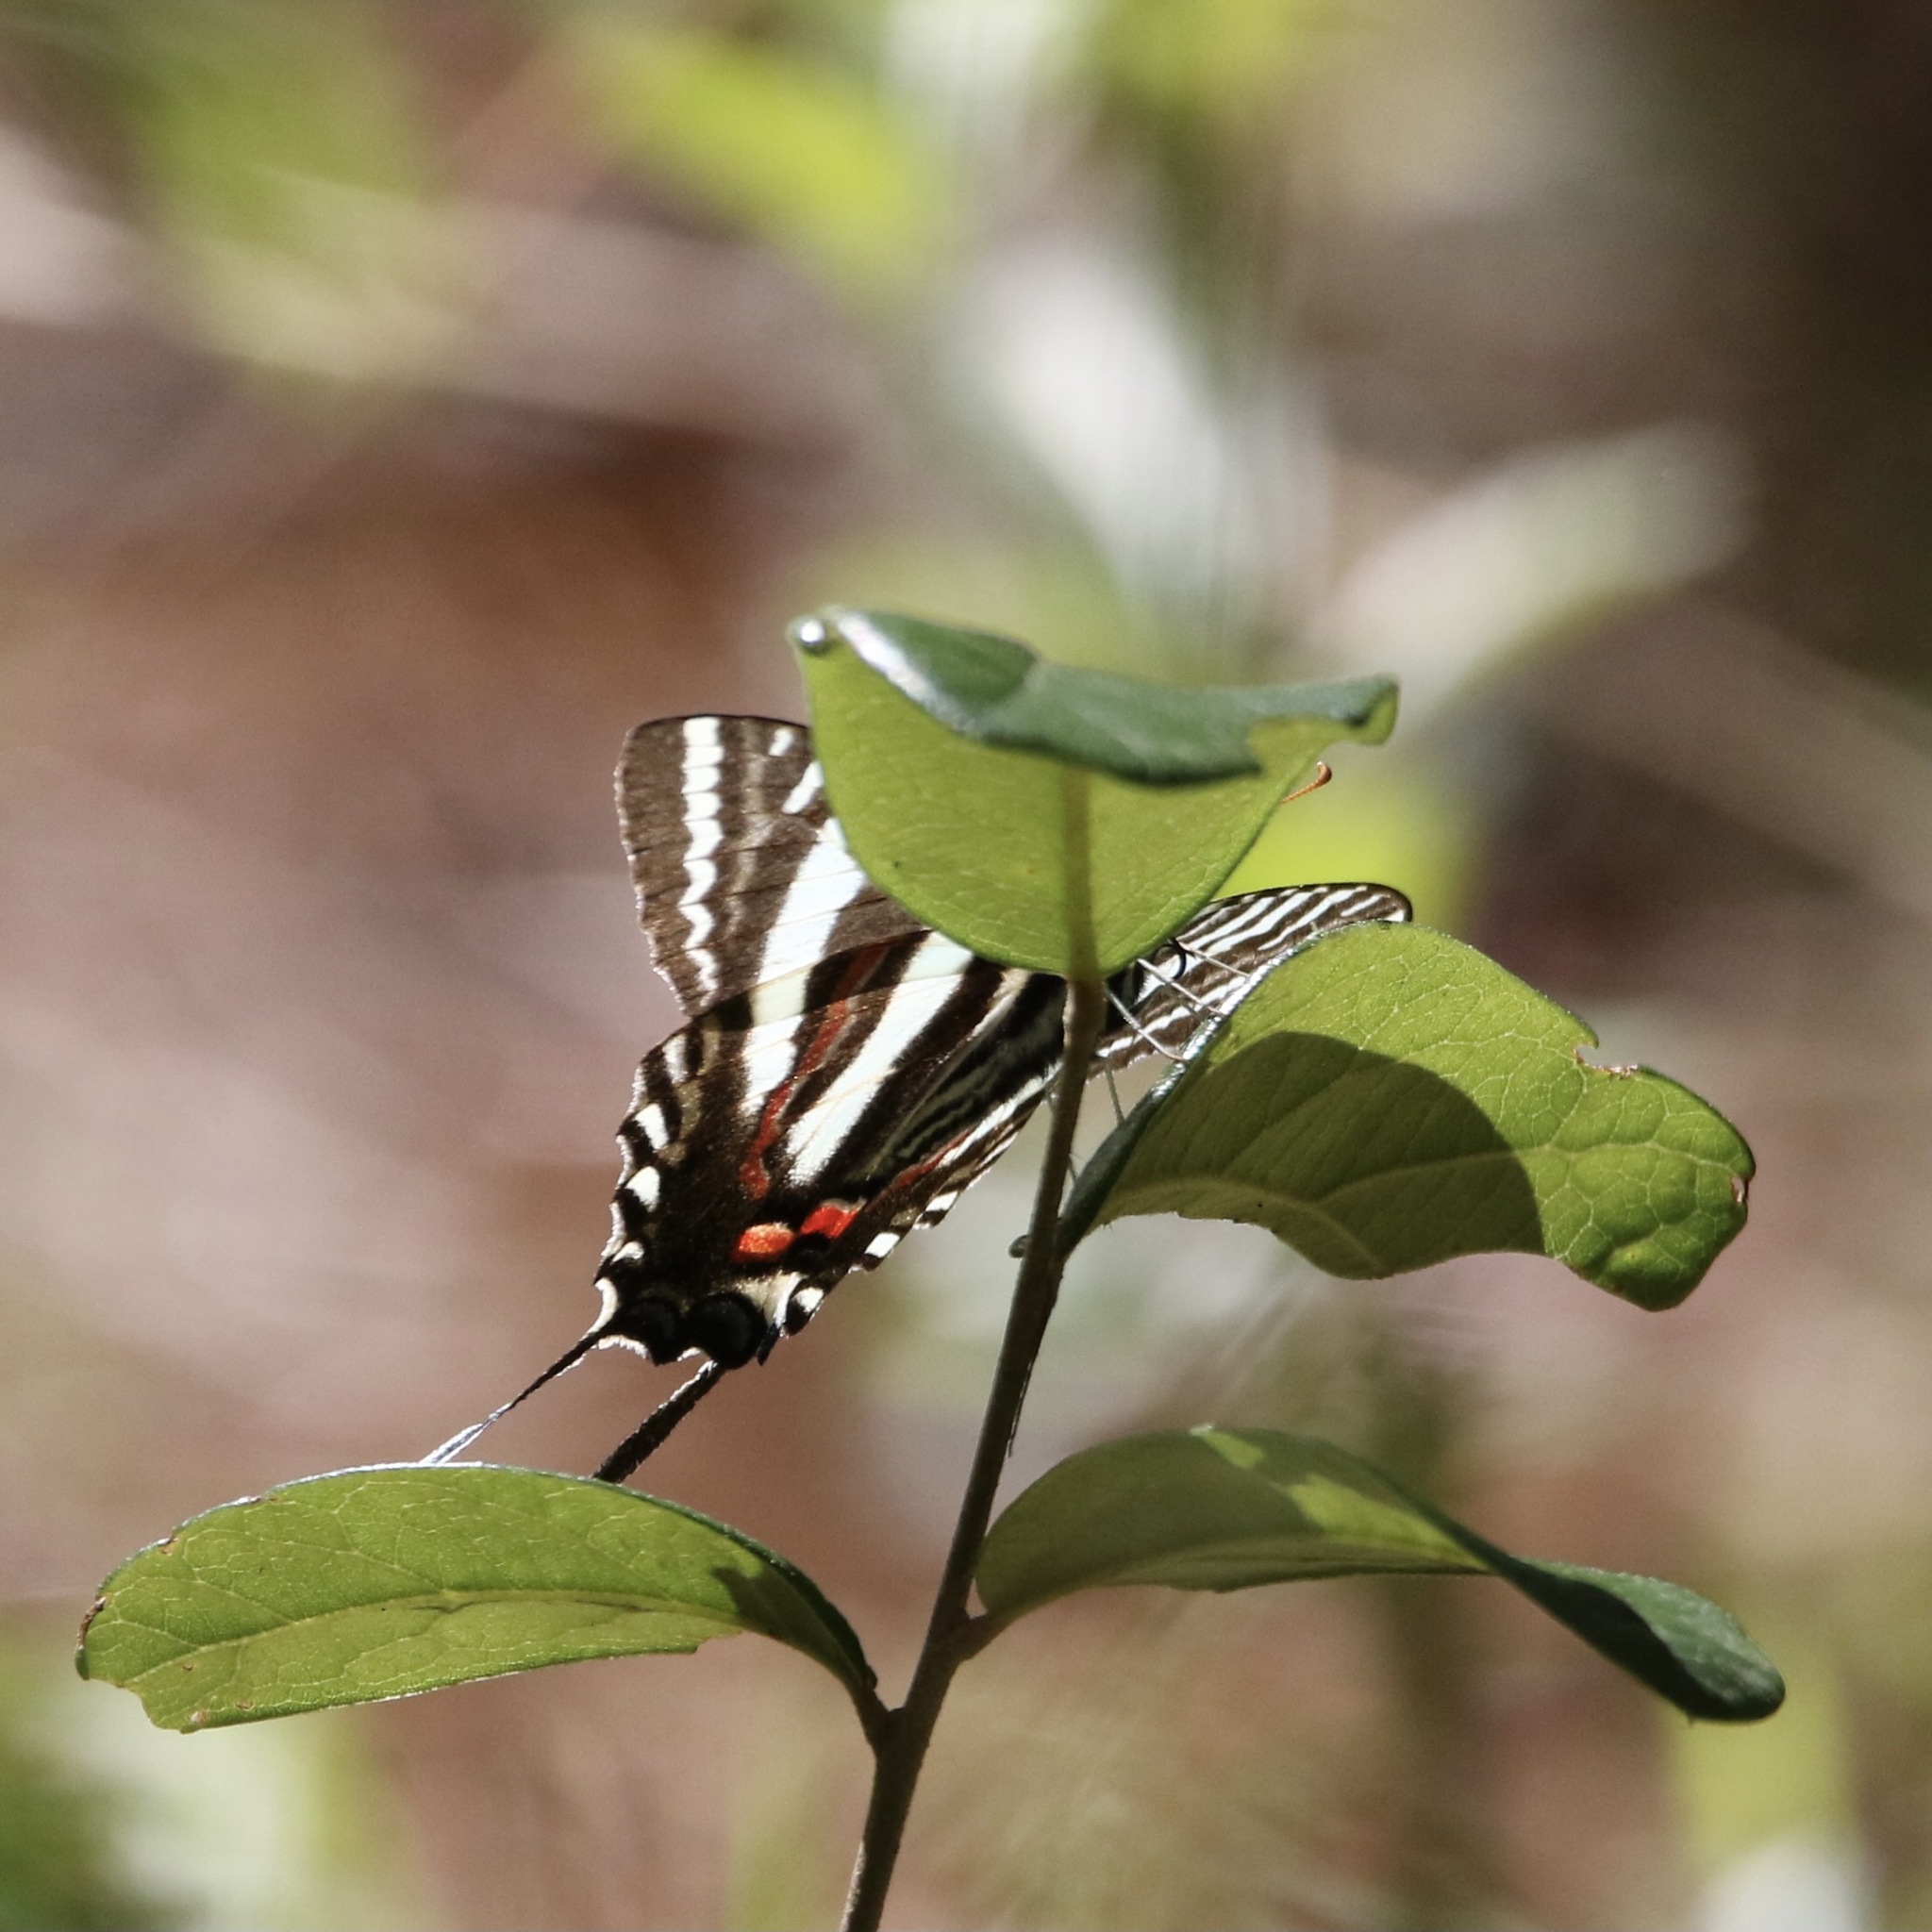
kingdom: Animalia
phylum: Arthropoda
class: Insecta
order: Lepidoptera
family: Papilionidae
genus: Protographium
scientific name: Protographium marcellus
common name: Zebra swallowtail
